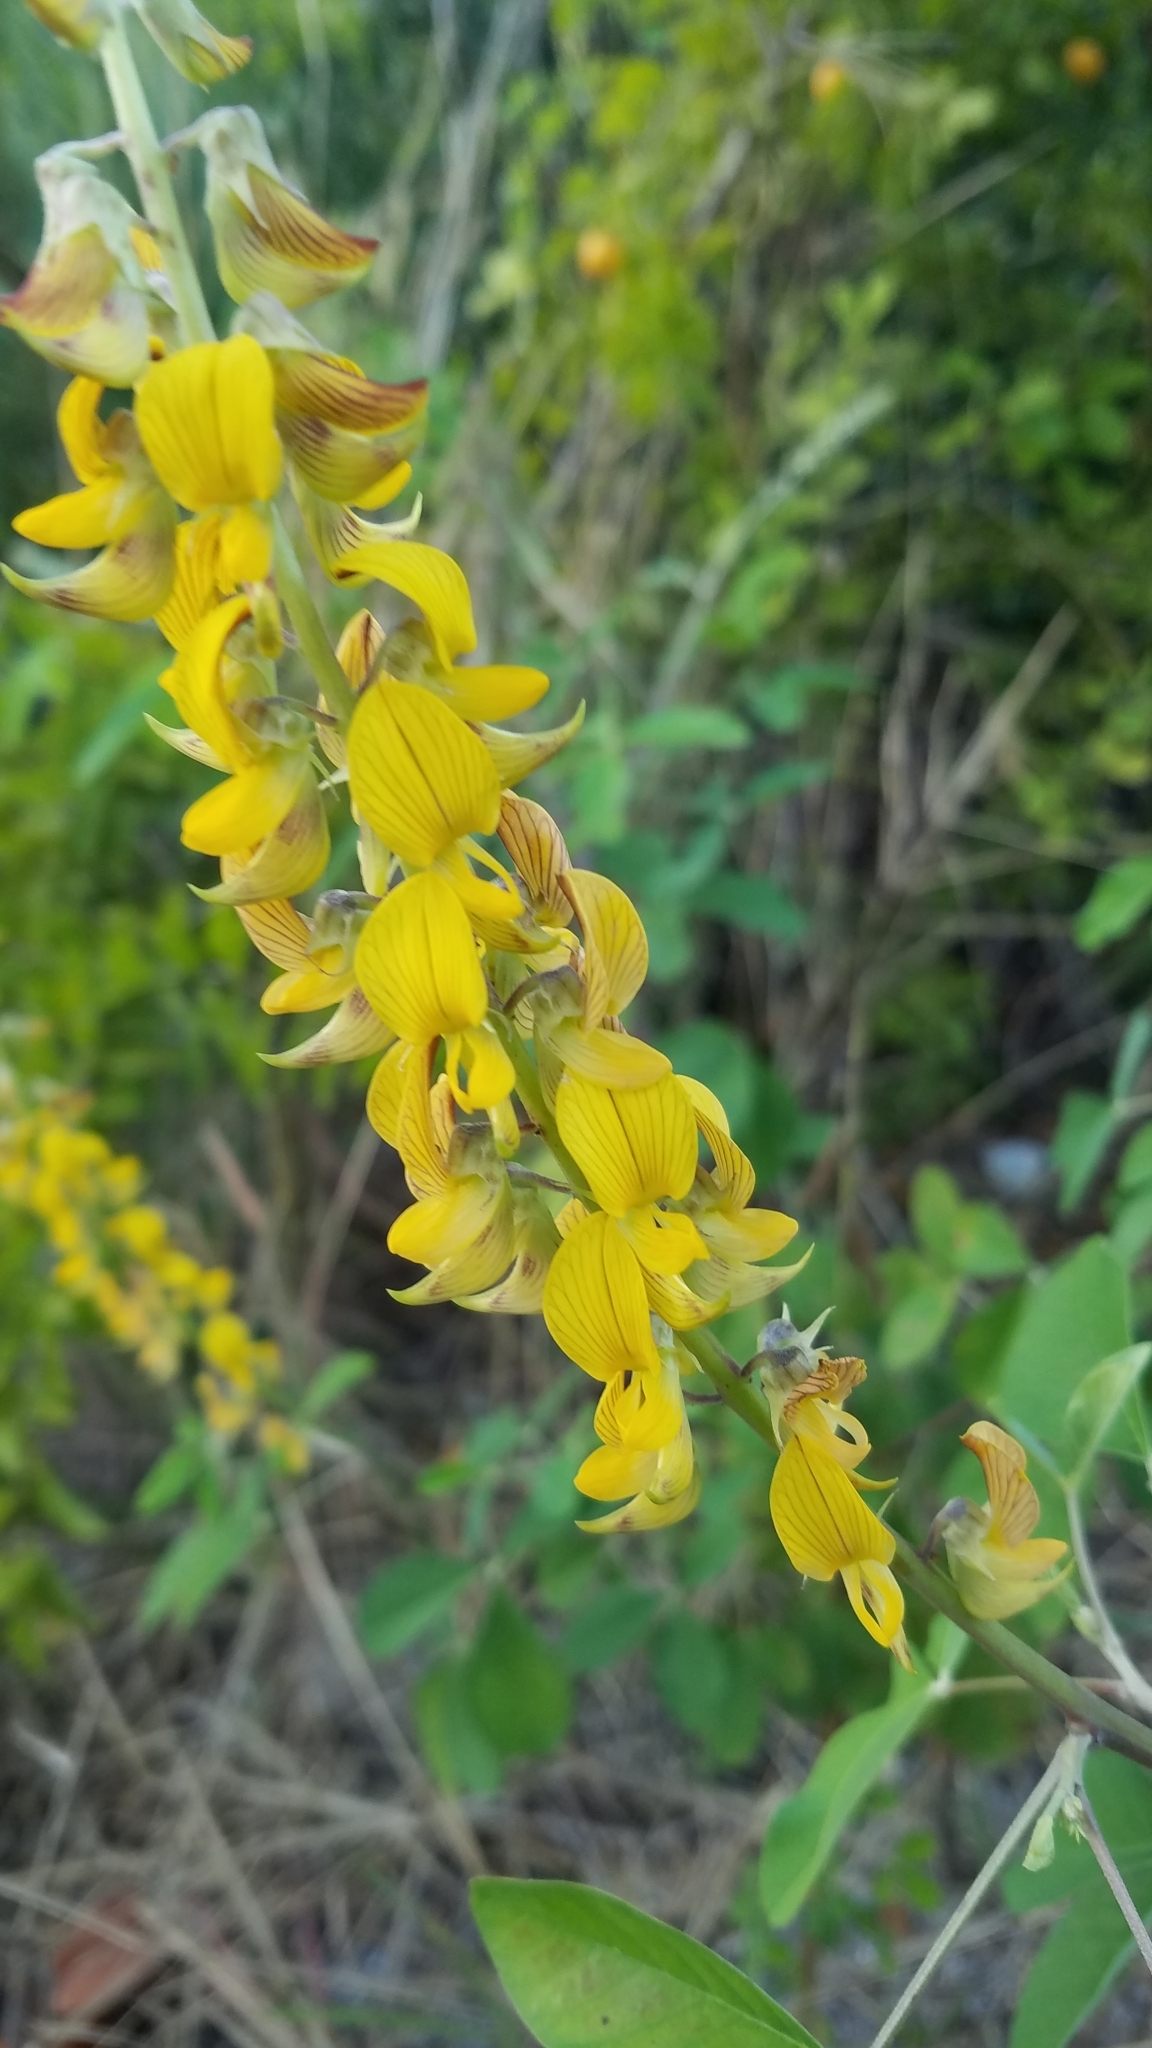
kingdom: Plantae
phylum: Tracheophyta
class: Magnoliopsida
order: Fabales
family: Fabaceae
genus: Crotalaria
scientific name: Crotalaria pallida
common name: Smooth rattlebox
